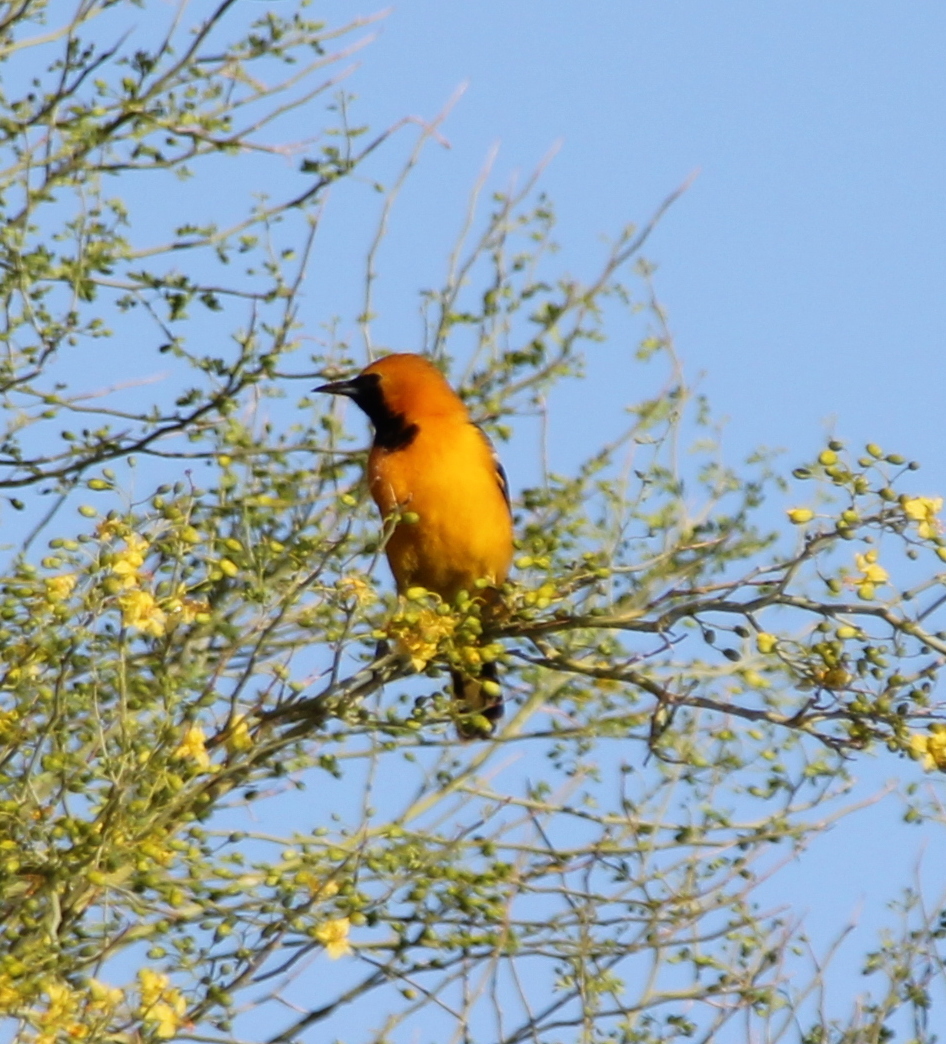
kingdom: Animalia
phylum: Chordata
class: Aves
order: Passeriformes
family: Icteridae
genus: Icterus
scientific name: Icterus cucullatus
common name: Hooded oriole
